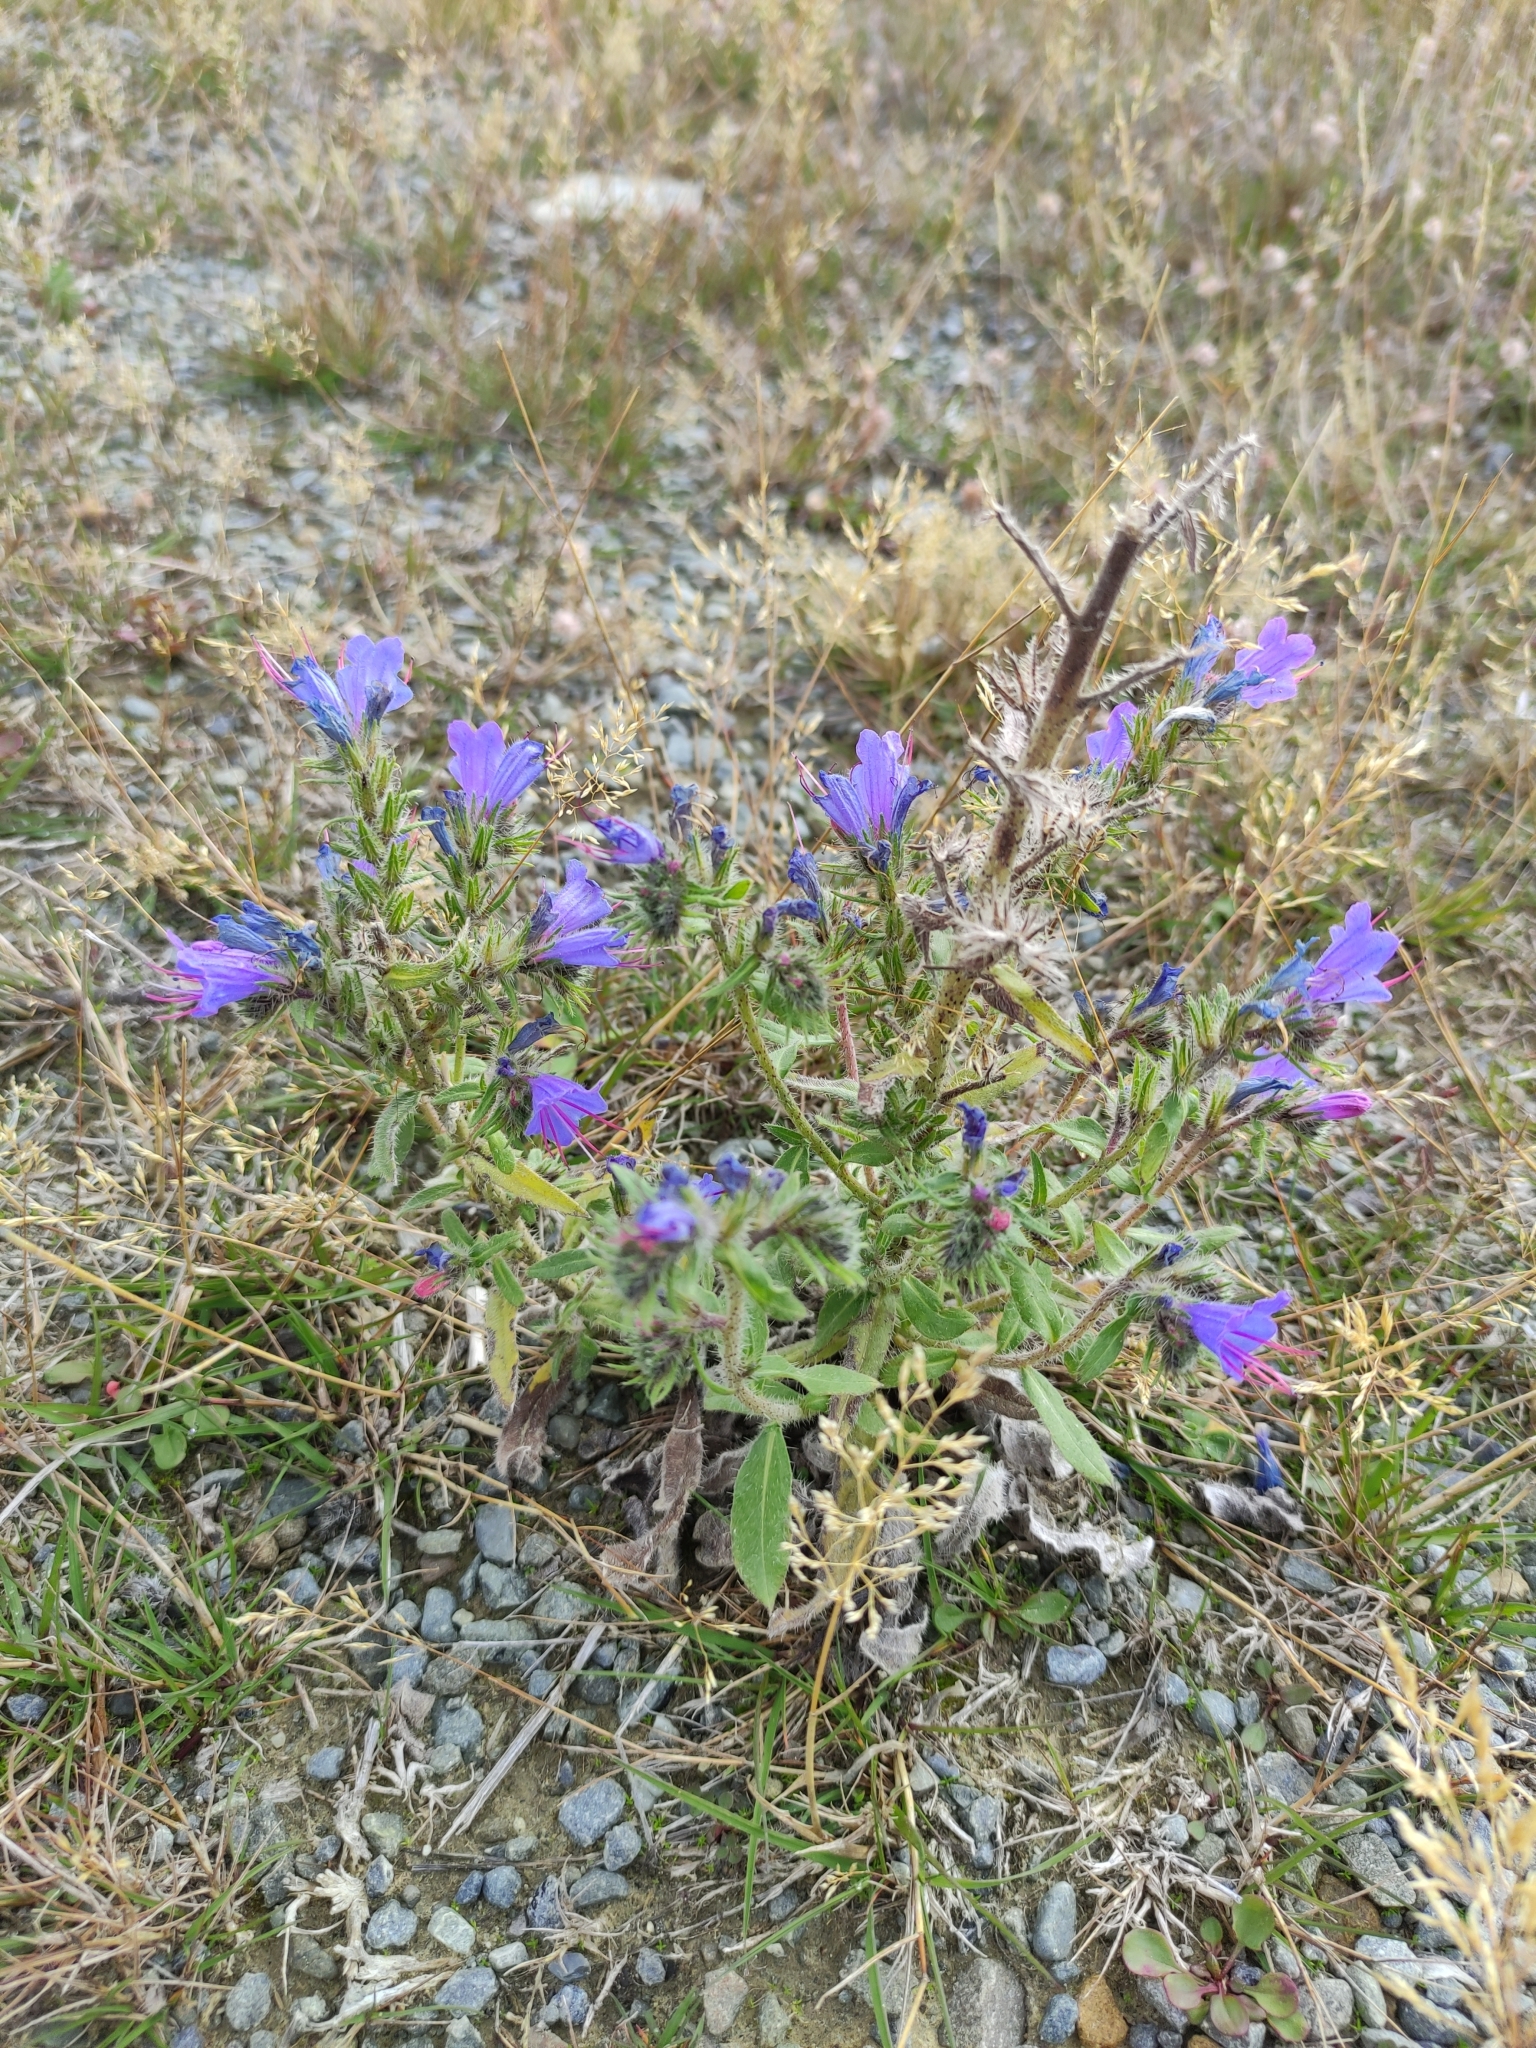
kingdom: Plantae
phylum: Tracheophyta
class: Magnoliopsida
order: Boraginales
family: Boraginaceae
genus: Echium
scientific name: Echium vulgare
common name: Common viper's bugloss
